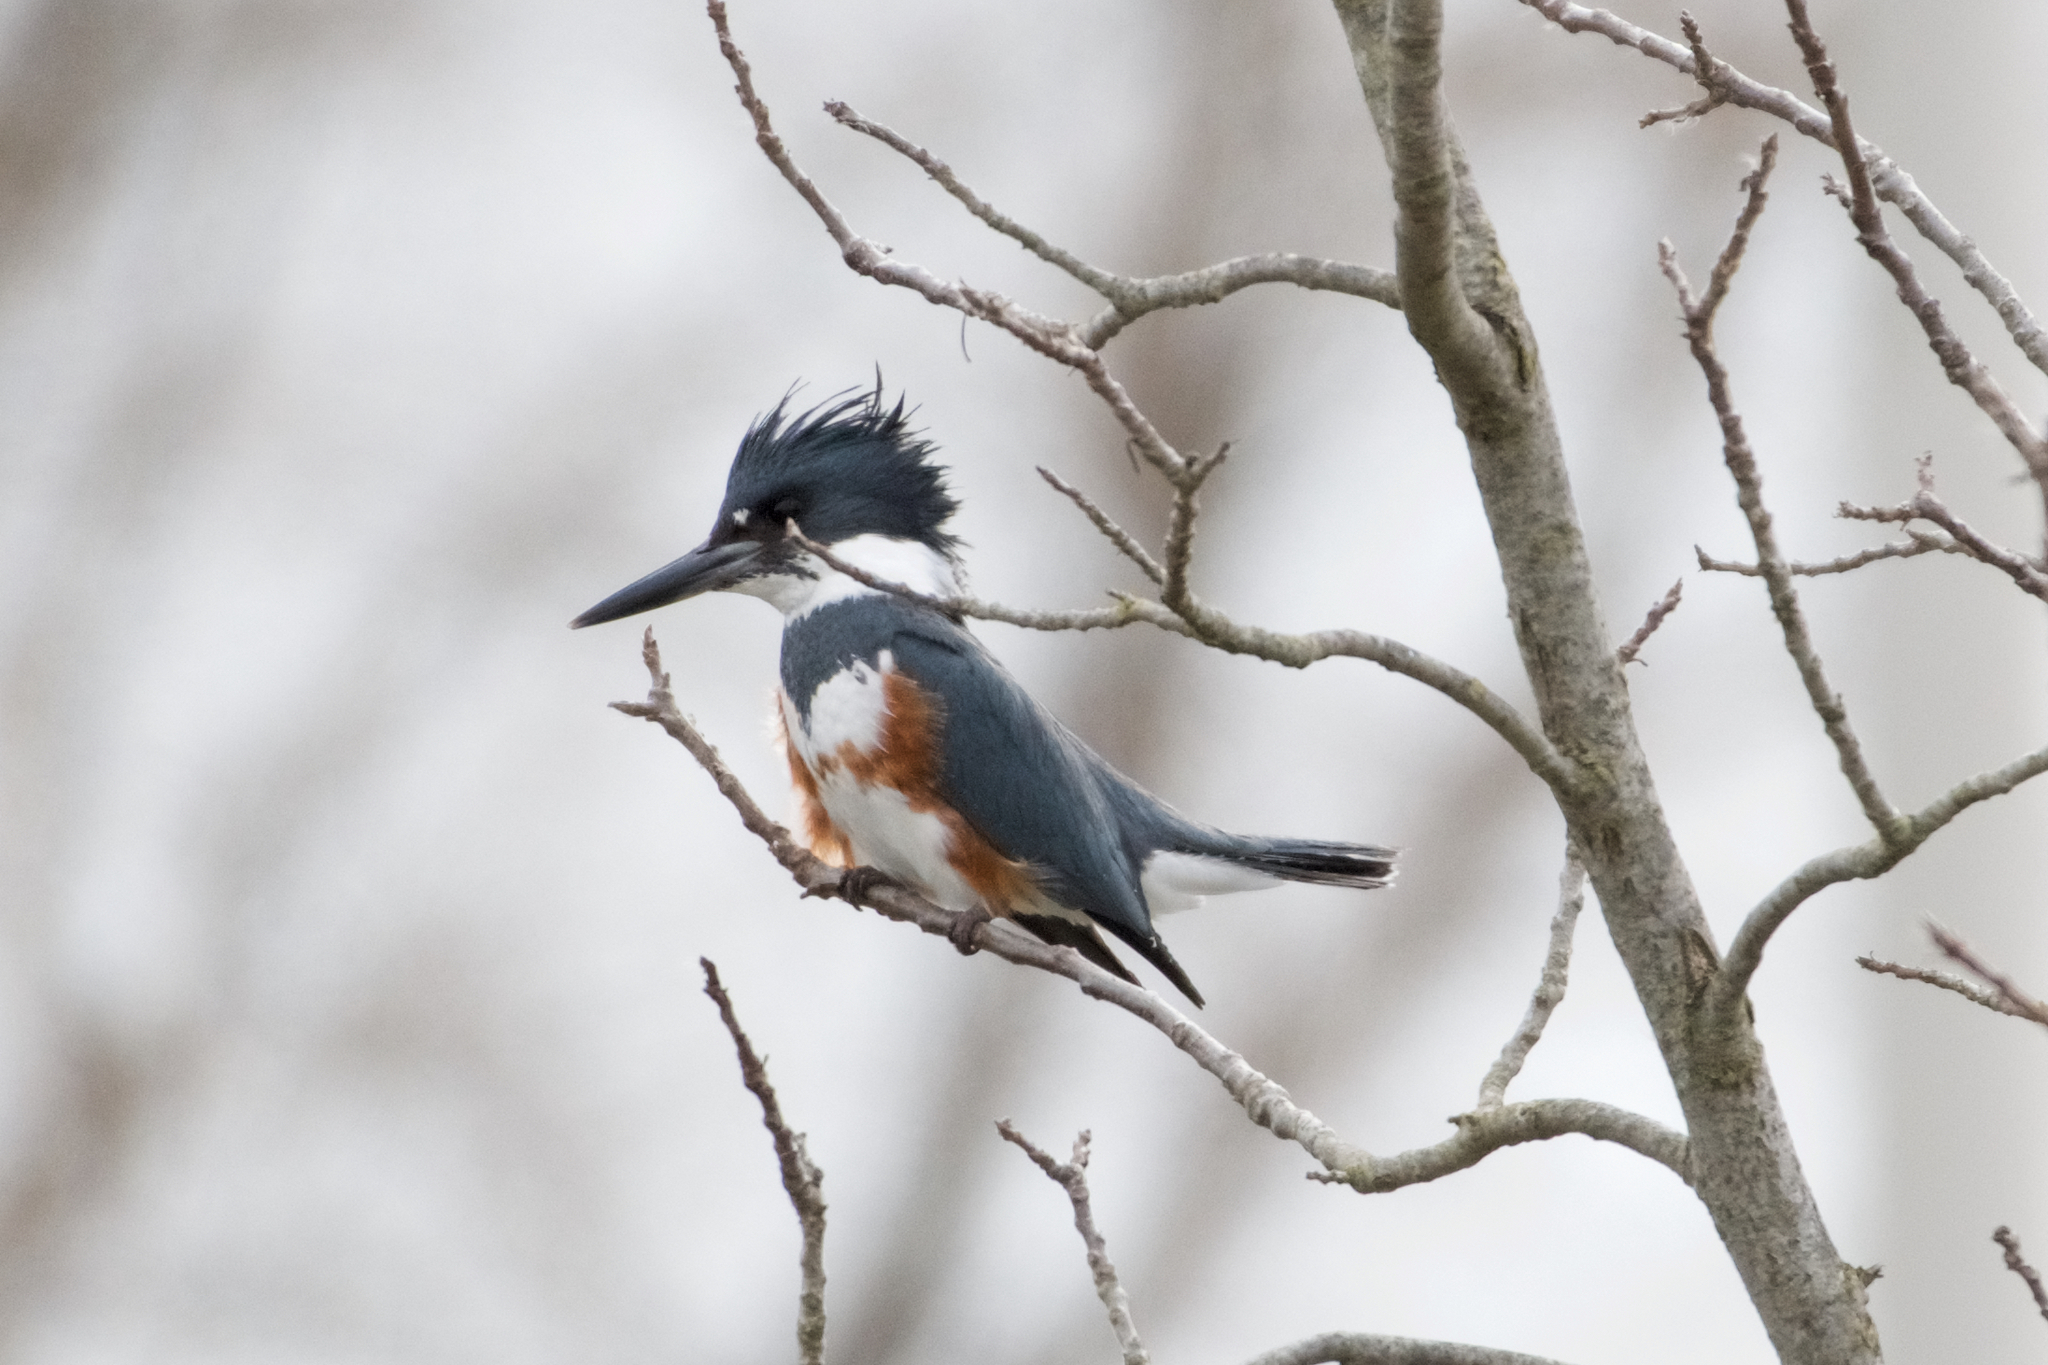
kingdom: Animalia
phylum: Chordata
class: Aves
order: Coraciiformes
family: Alcedinidae
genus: Megaceryle
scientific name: Megaceryle alcyon
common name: Belted kingfisher
